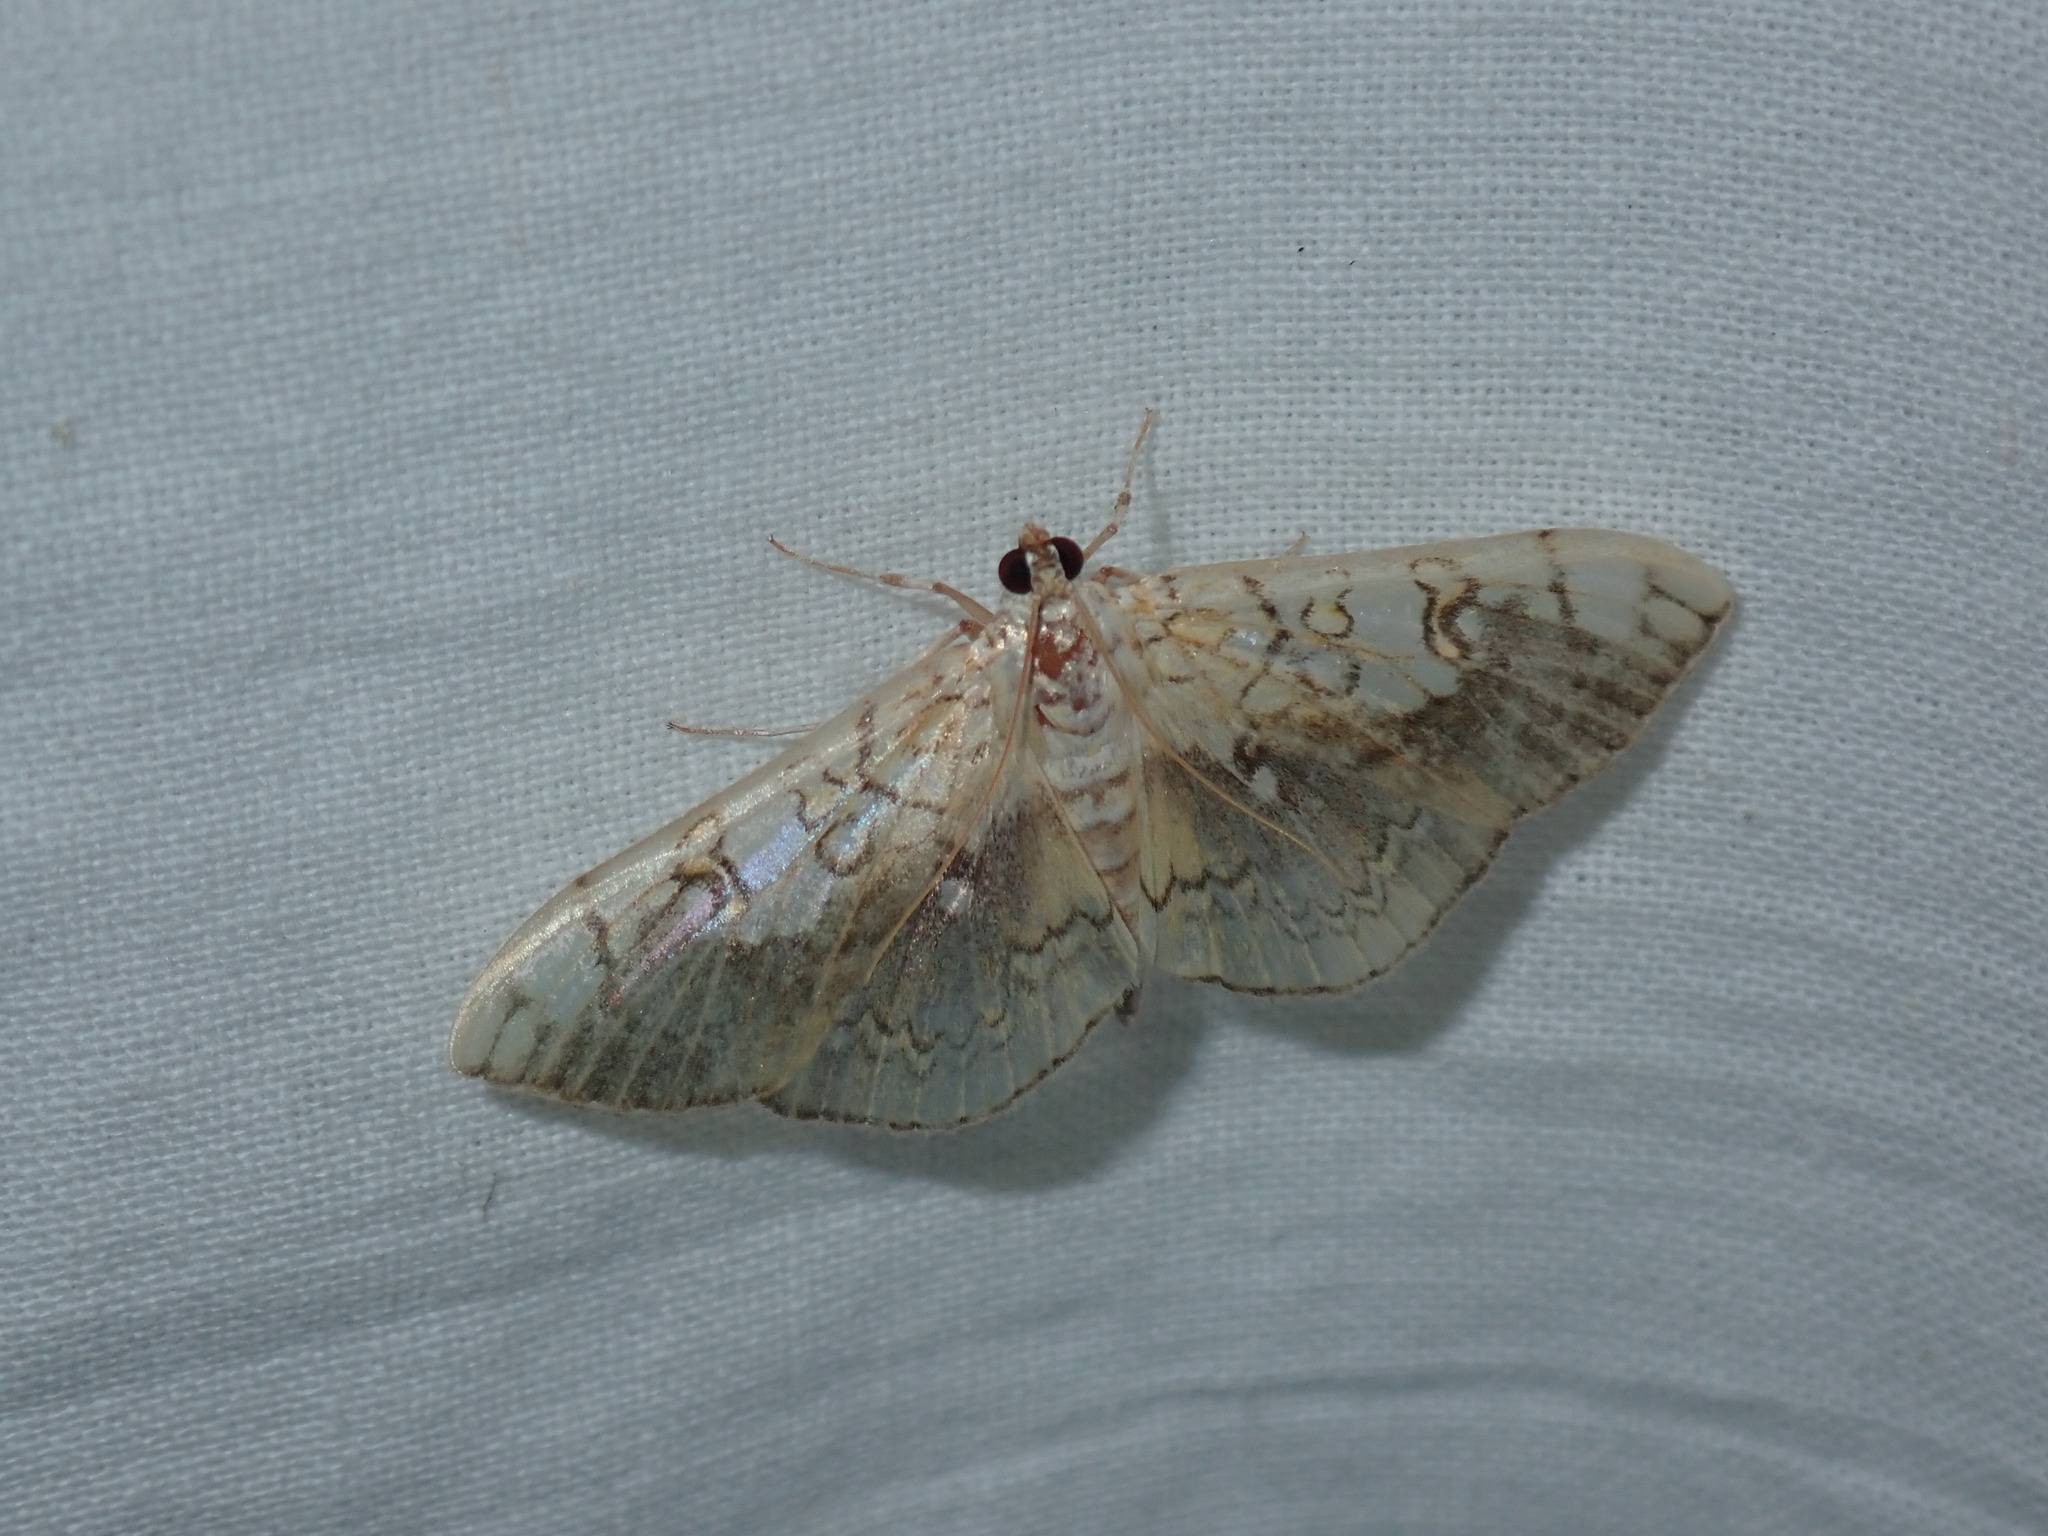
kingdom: Animalia
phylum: Arthropoda
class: Insecta
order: Lepidoptera
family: Crambidae
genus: Pantographa
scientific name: Pantographa limata
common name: Basswood leafroller moth
